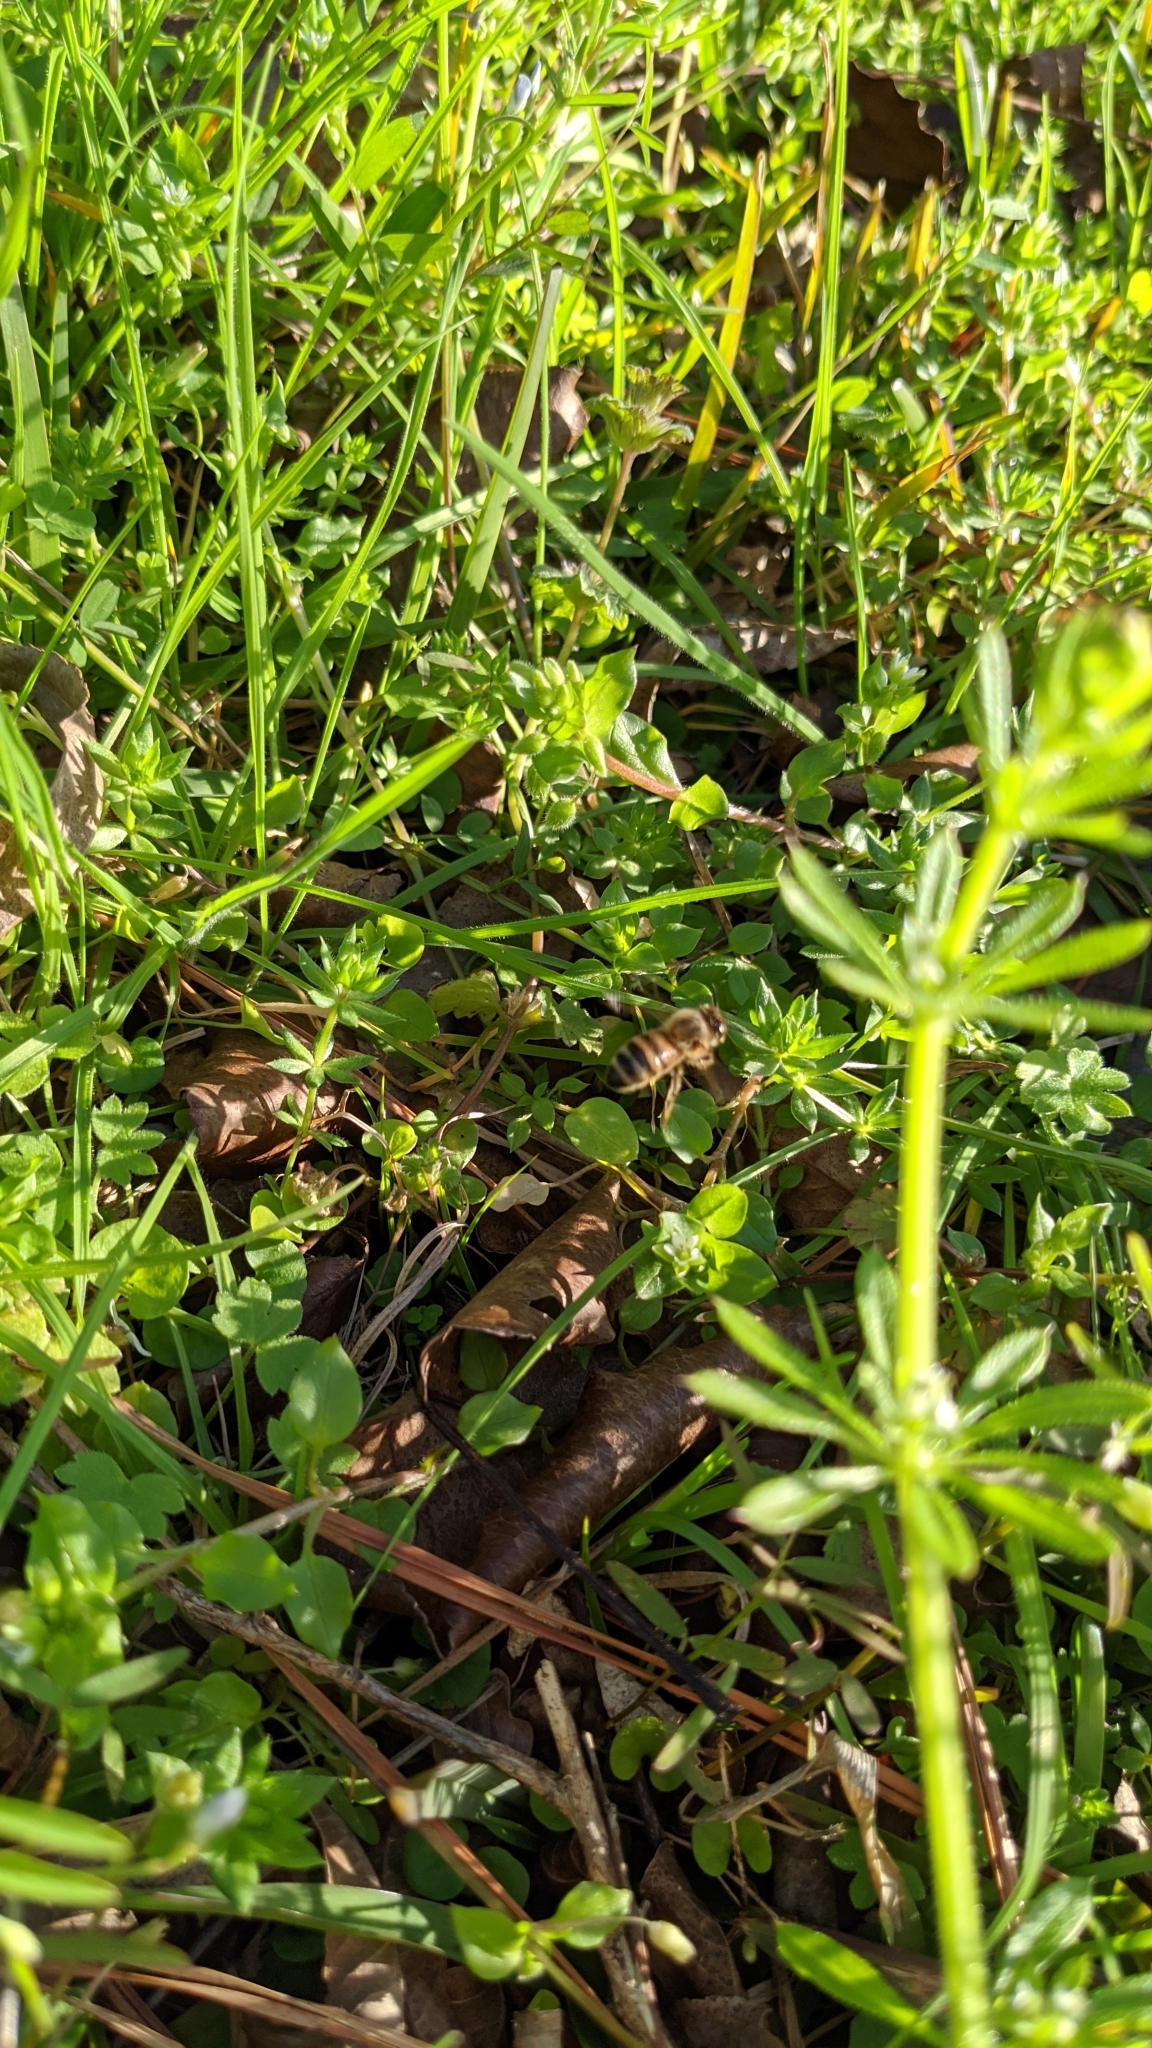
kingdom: Animalia
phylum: Arthropoda
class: Insecta
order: Hymenoptera
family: Apidae
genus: Apis
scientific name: Apis mellifera
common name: Honey bee
